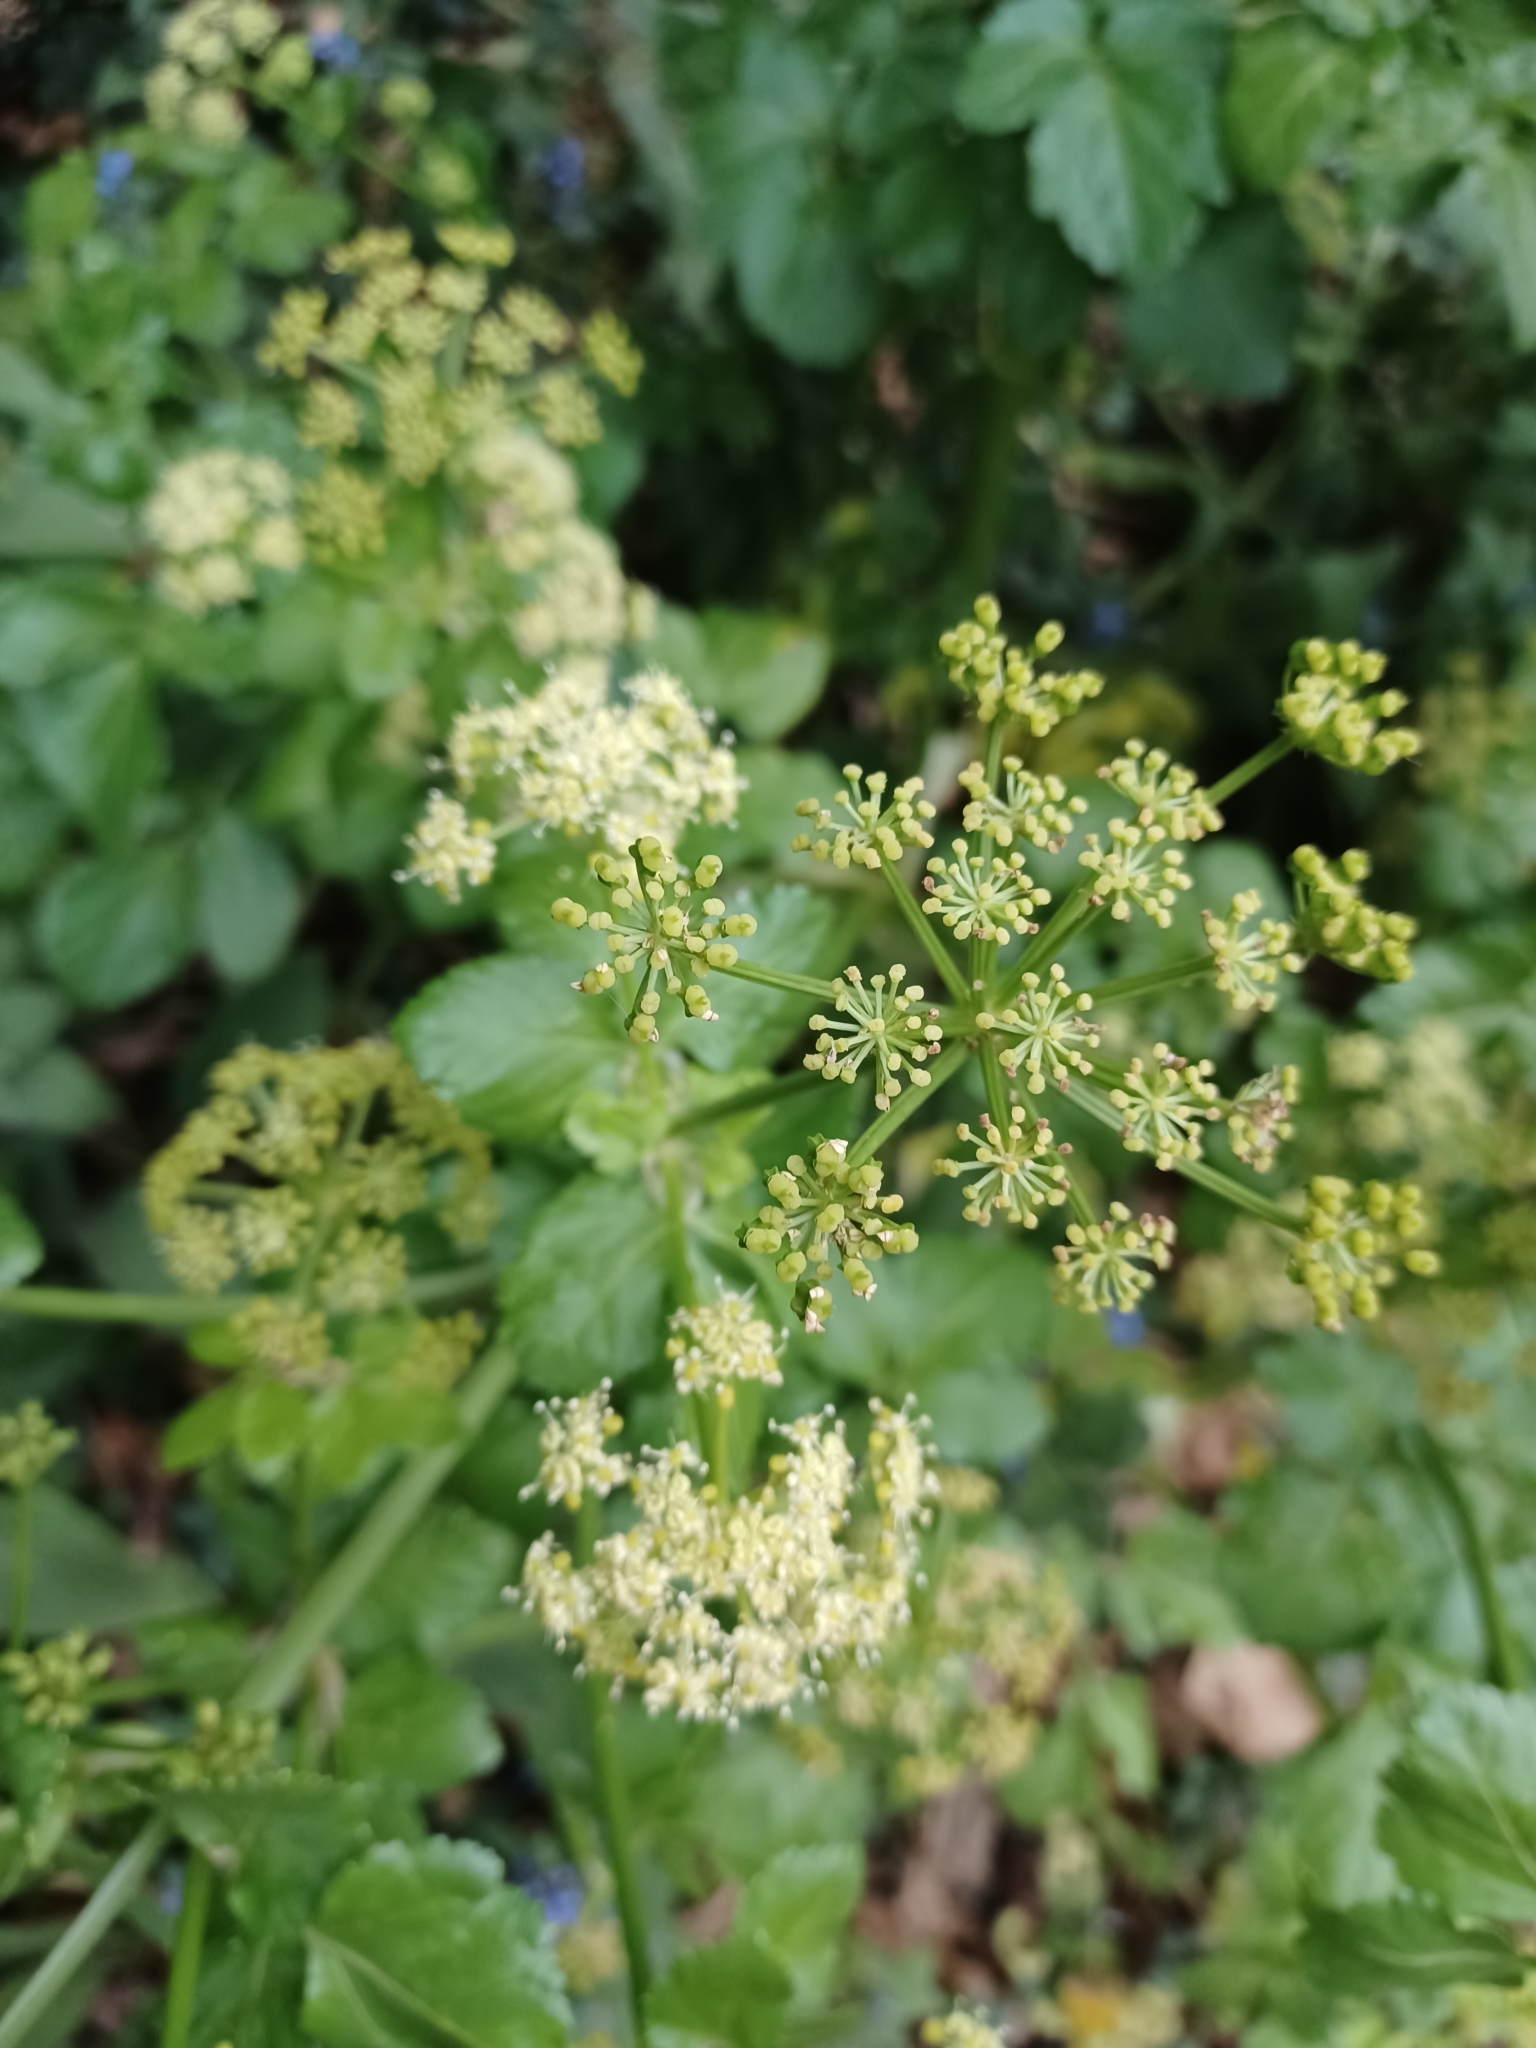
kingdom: Plantae
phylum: Tracheophyta
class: Magnoliopsida
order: Apiales
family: Apiaceae
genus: Smyrnium
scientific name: Smyrnium olusatrum
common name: Alexanders
